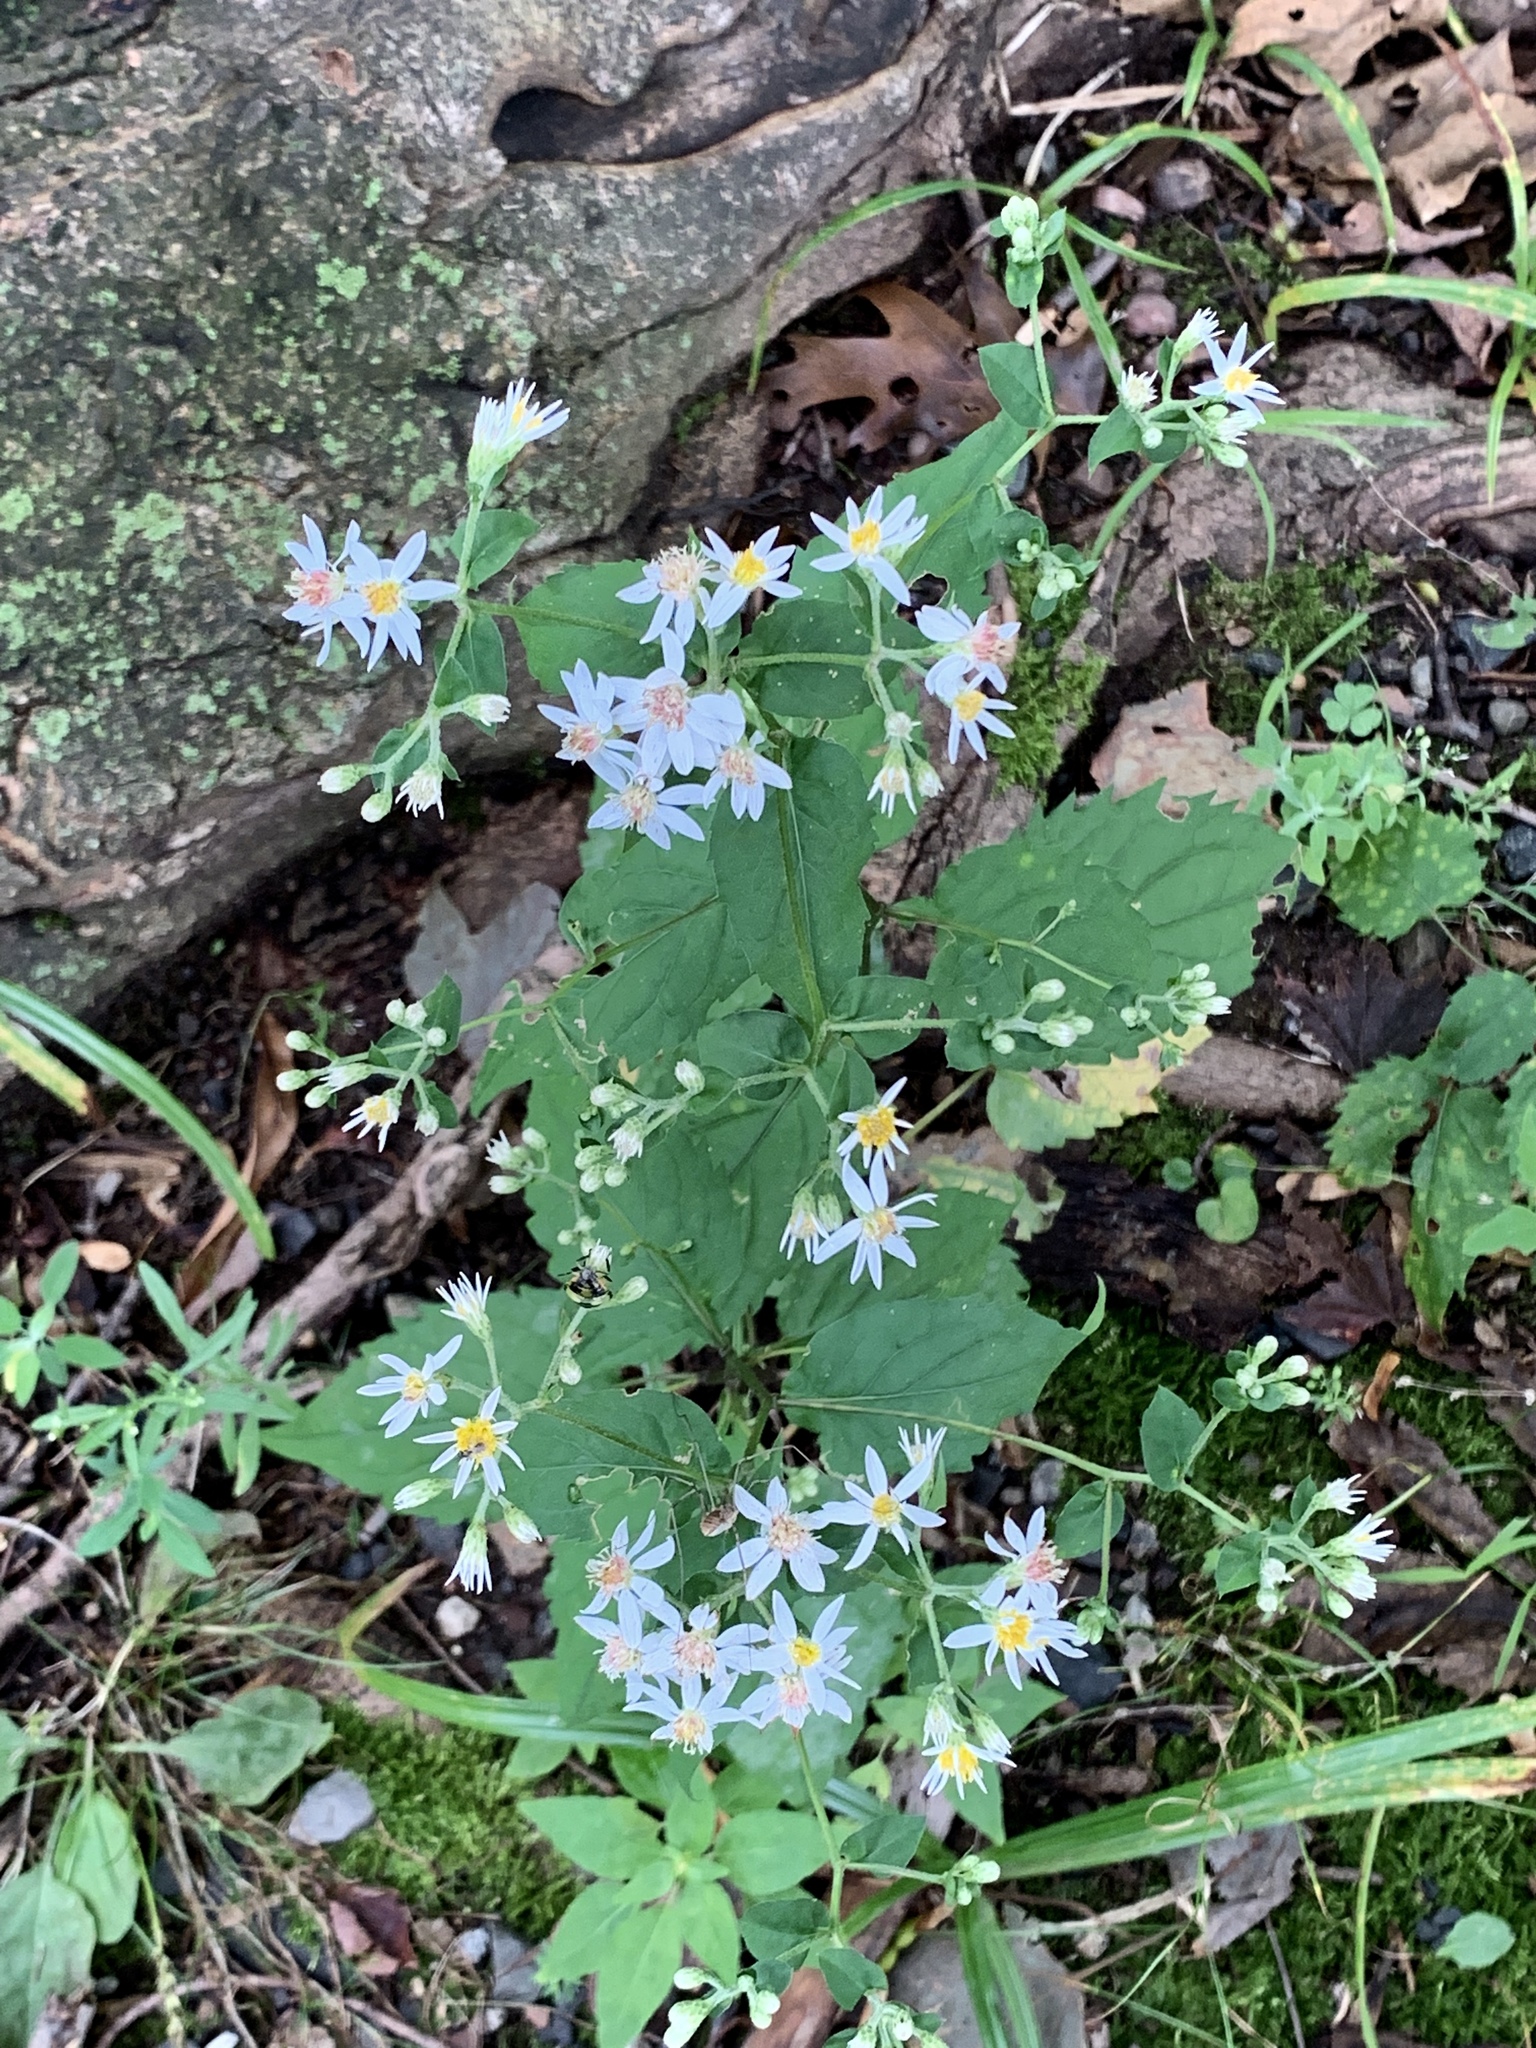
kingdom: Plantae
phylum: Tracheophyta
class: Magnoliopsida
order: Asterales
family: Asteraceae
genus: Eurybia
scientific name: Eurybia divaricata
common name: White wood aster
